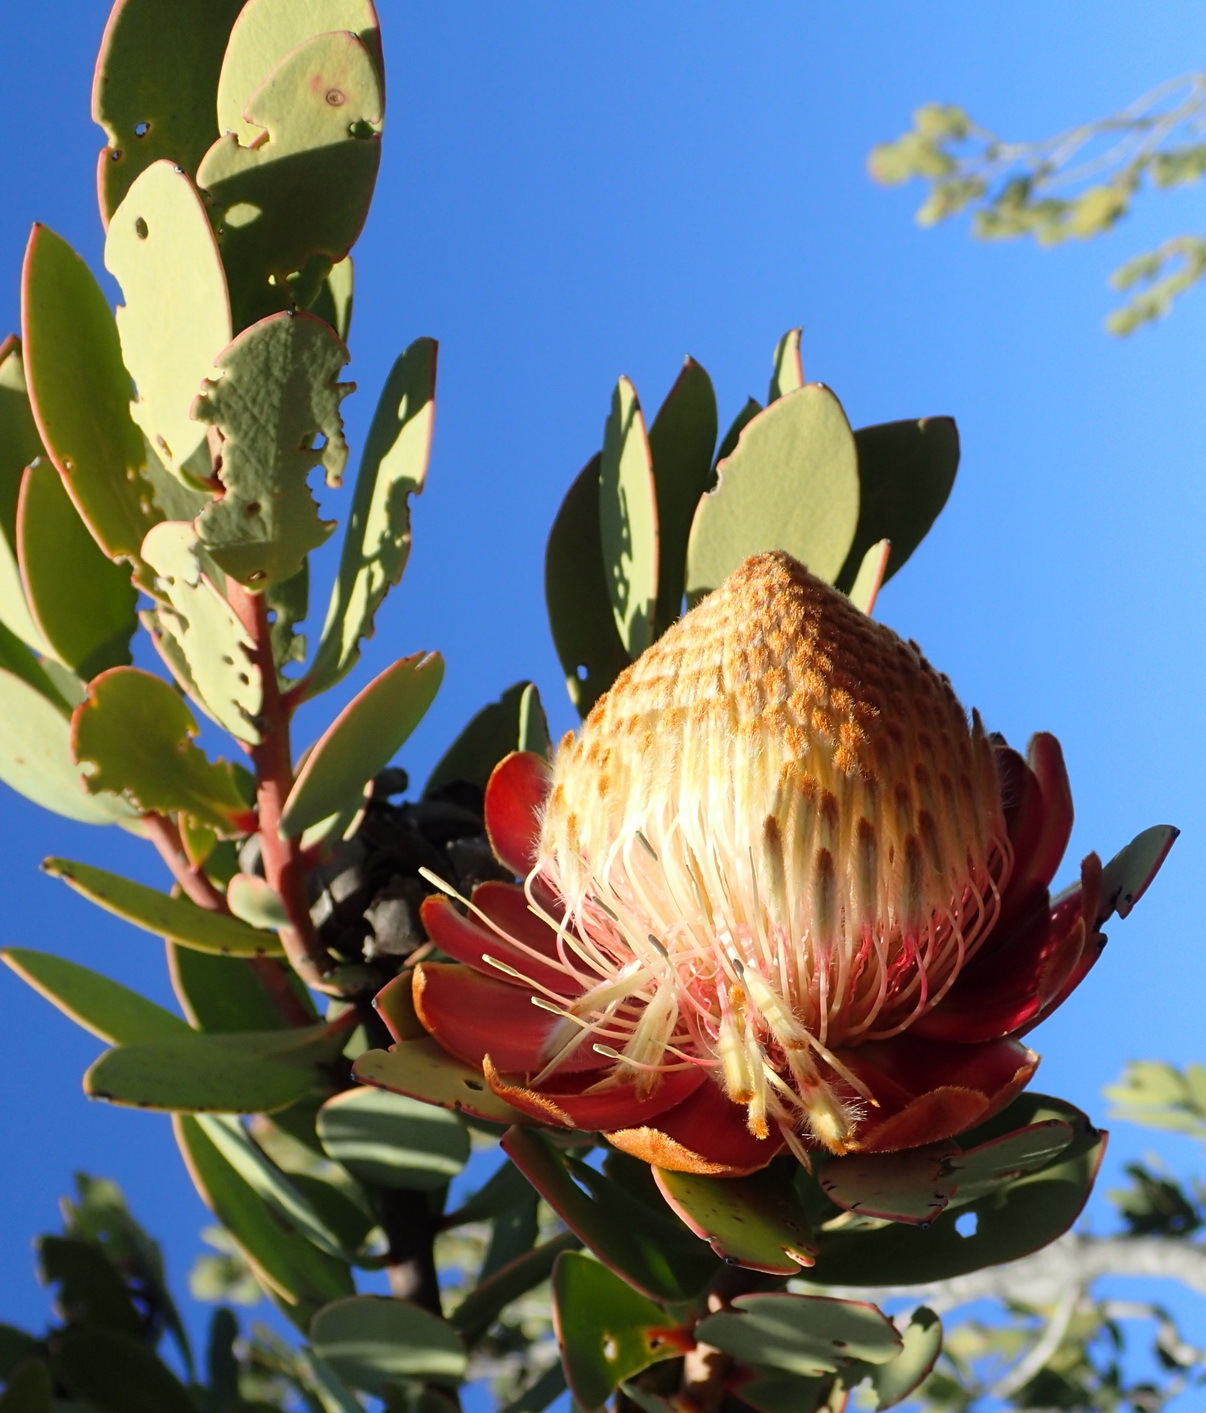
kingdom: Plantae
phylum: Tracheophyta
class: Magnoliopsida
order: Proteales
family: Proteaceae
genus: Protea
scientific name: Protea glabra
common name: Chestnut sugarbush
